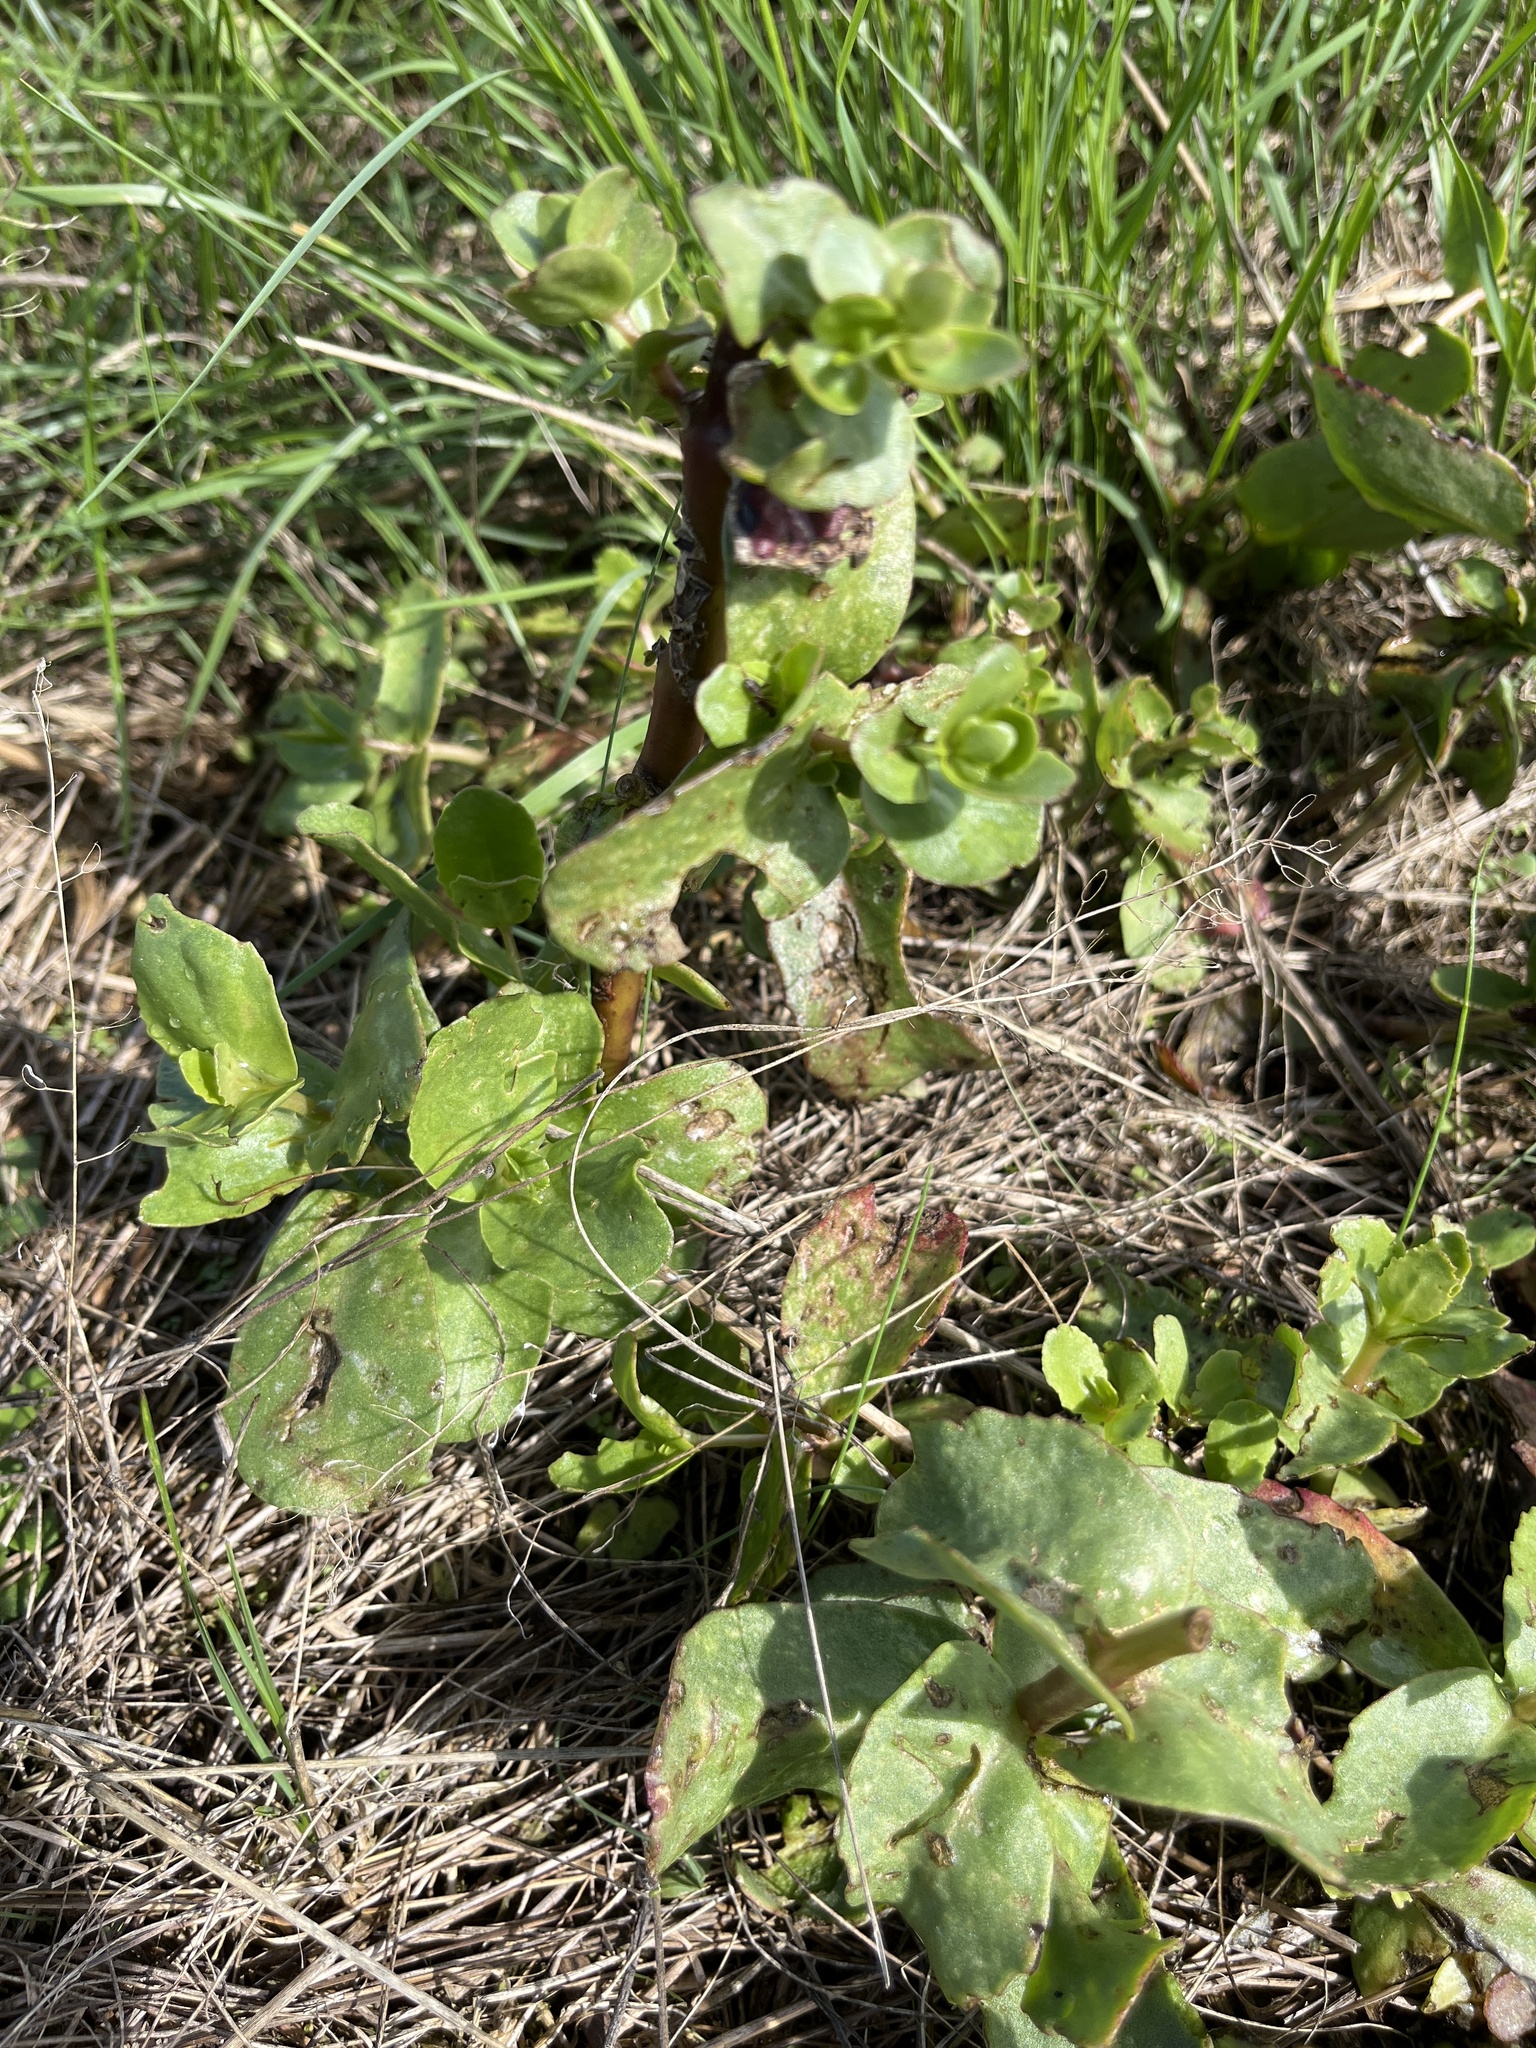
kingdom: Plantae
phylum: Tracheophyta
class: Magnoliopsida
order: Saxifragales
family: Crassulaceae
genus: Hylotelephium
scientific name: Hylotelephium maximum
